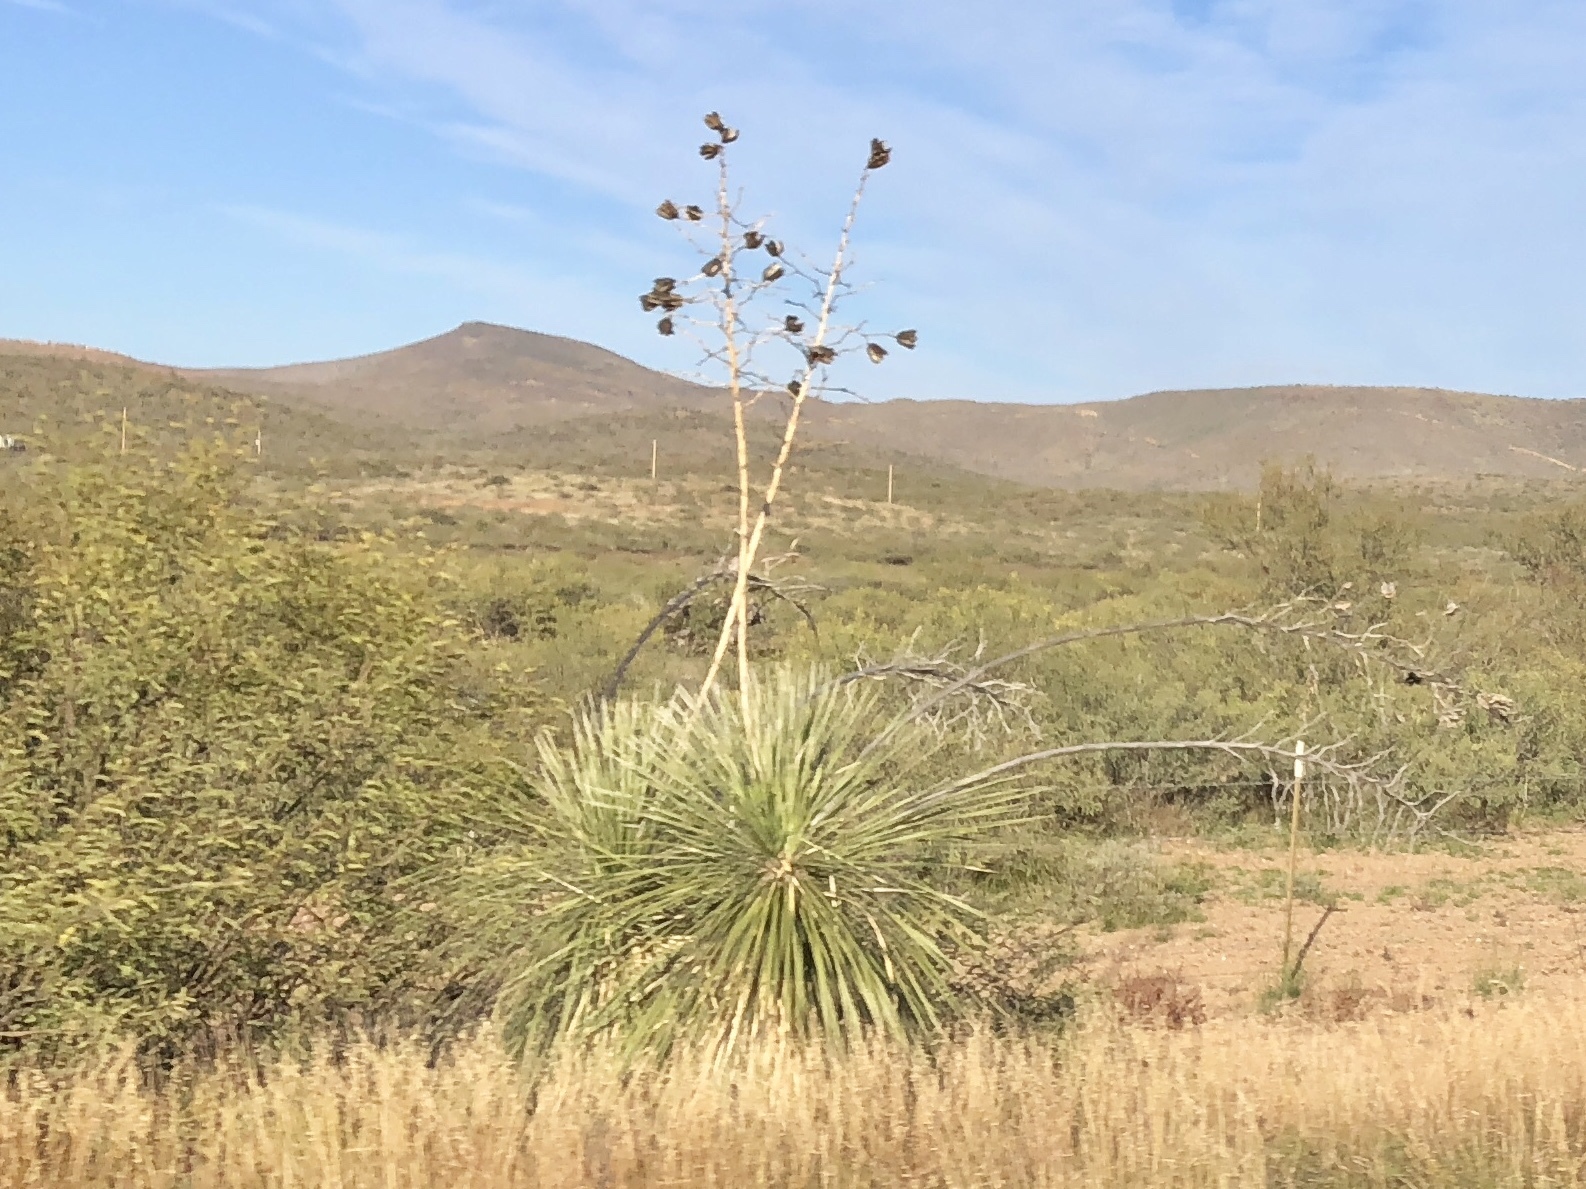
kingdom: Plantae
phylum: Tracheophyta
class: Liliopsida
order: Asparagales
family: Asparagaceae
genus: Yucca
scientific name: Yucca elata
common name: Palmella
